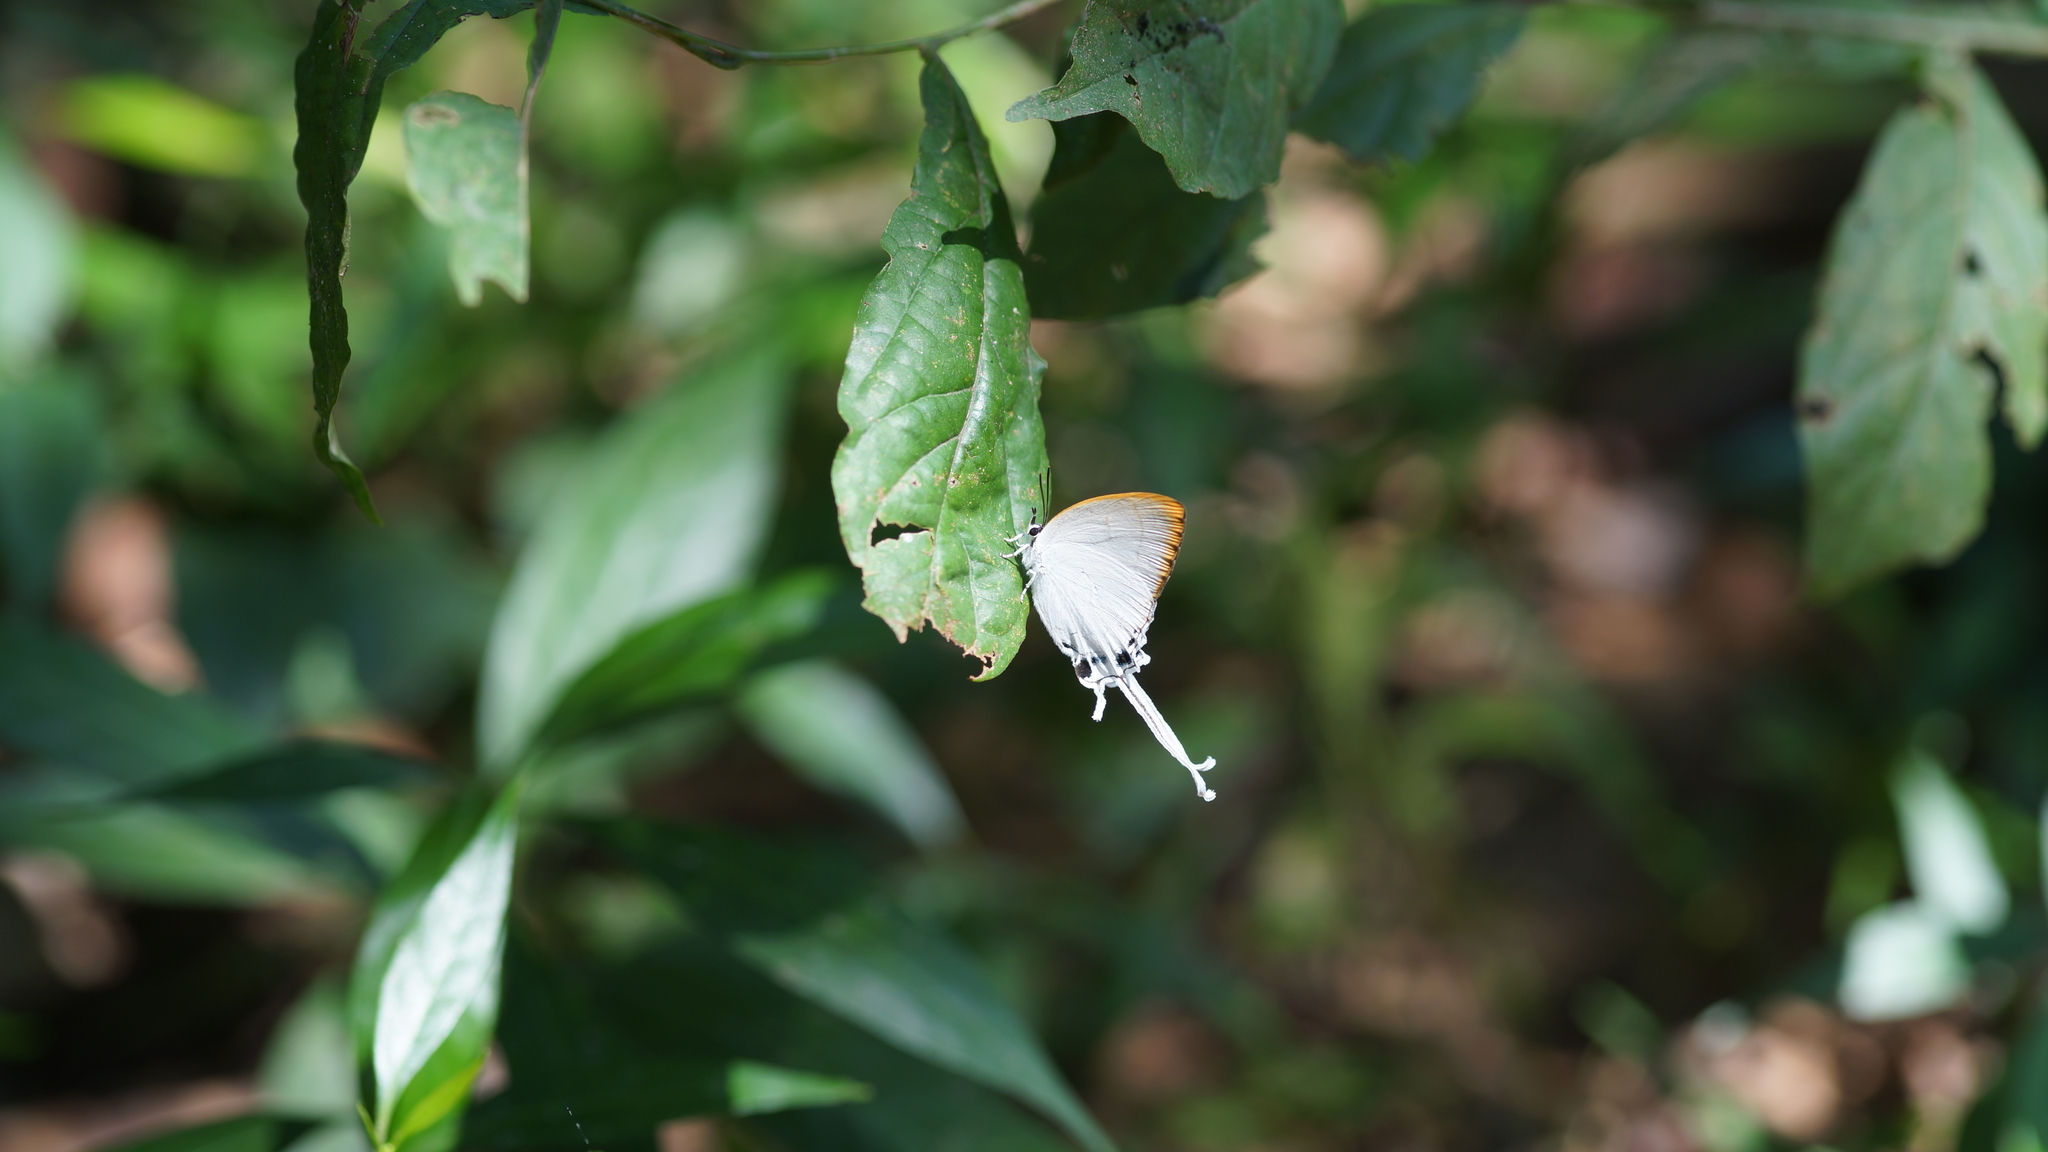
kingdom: Animalia
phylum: Arthropoda
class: Insecta
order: Lepidoptera
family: Lycaenidae
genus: Cheritra
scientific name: Cheritra freja
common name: Common imperial
